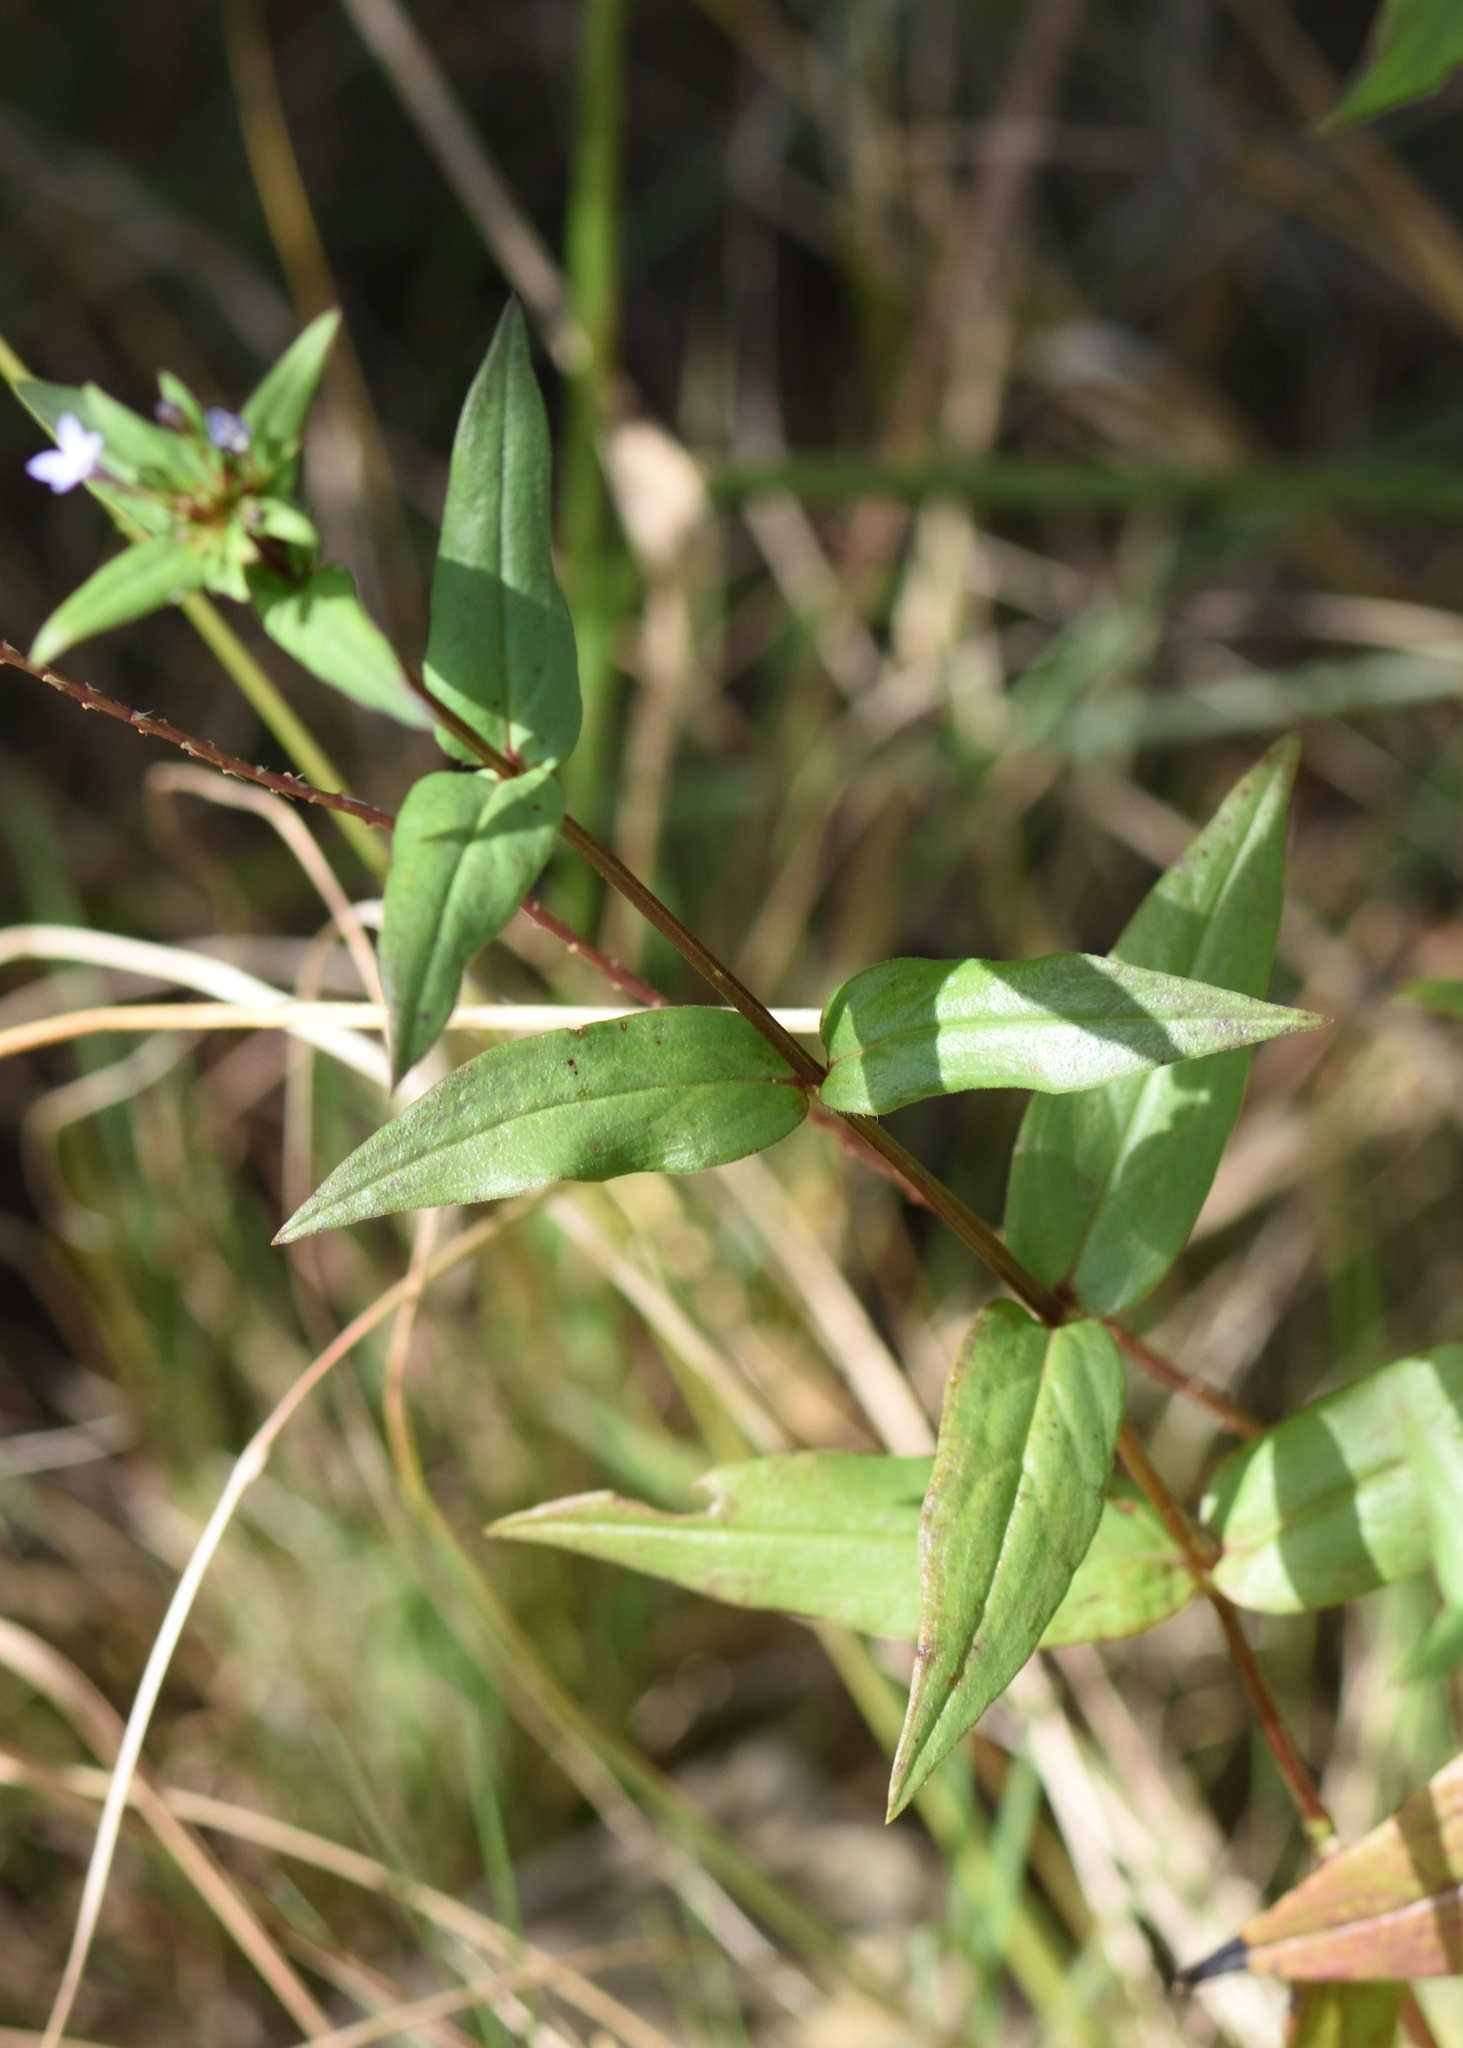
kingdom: Plantae
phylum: Tracheophyta
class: Magnoliopsida
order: Gentianales
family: Rubiaceae
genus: Conostomium
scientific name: Conostomium natalense
